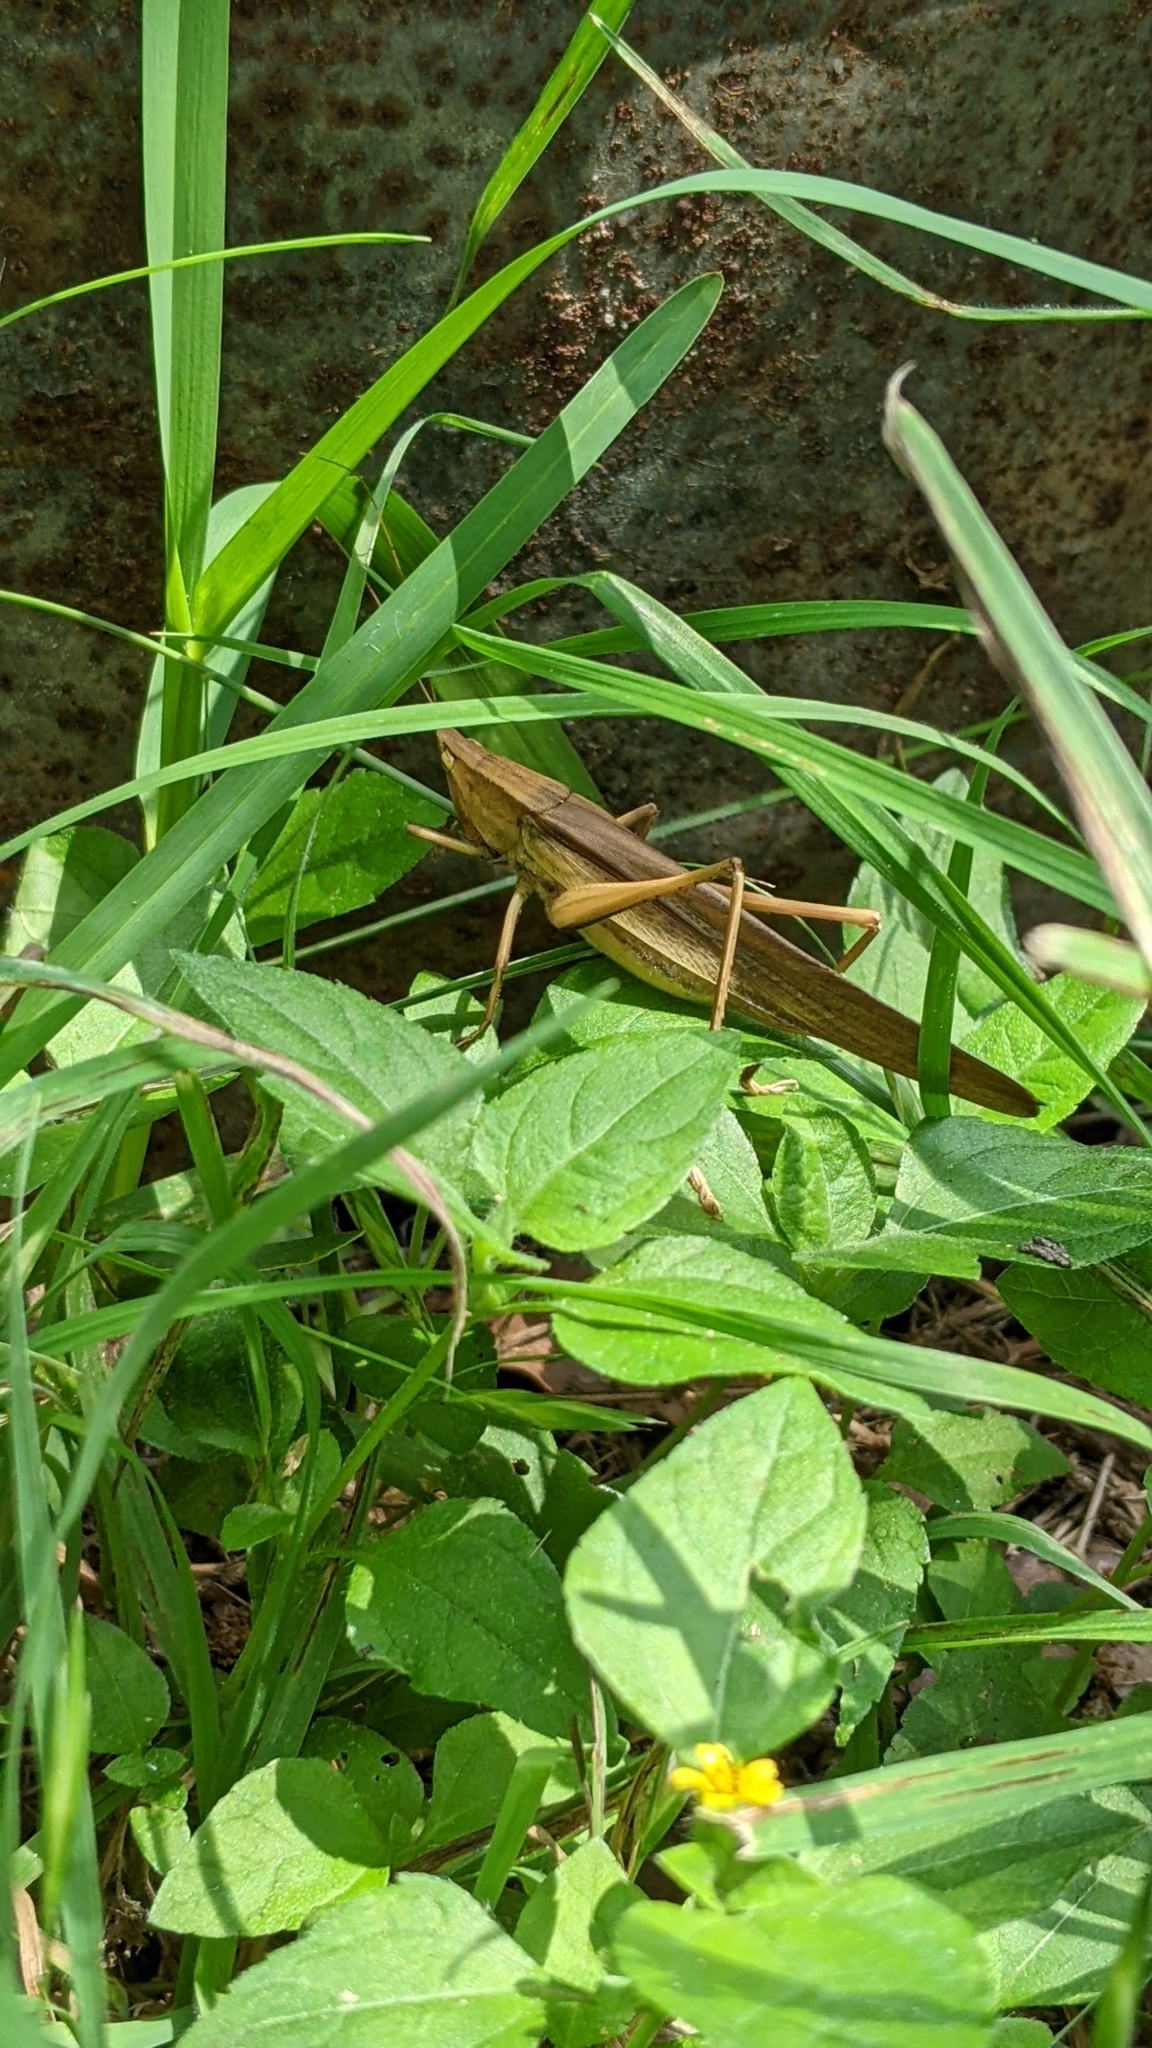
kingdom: Animalia
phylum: Arthropoda
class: Insecta
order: Orthoptera
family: Tettigoniidae
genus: Neoconocephalus
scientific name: Neoconocephalus triops
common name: Broad-tipped conehead
